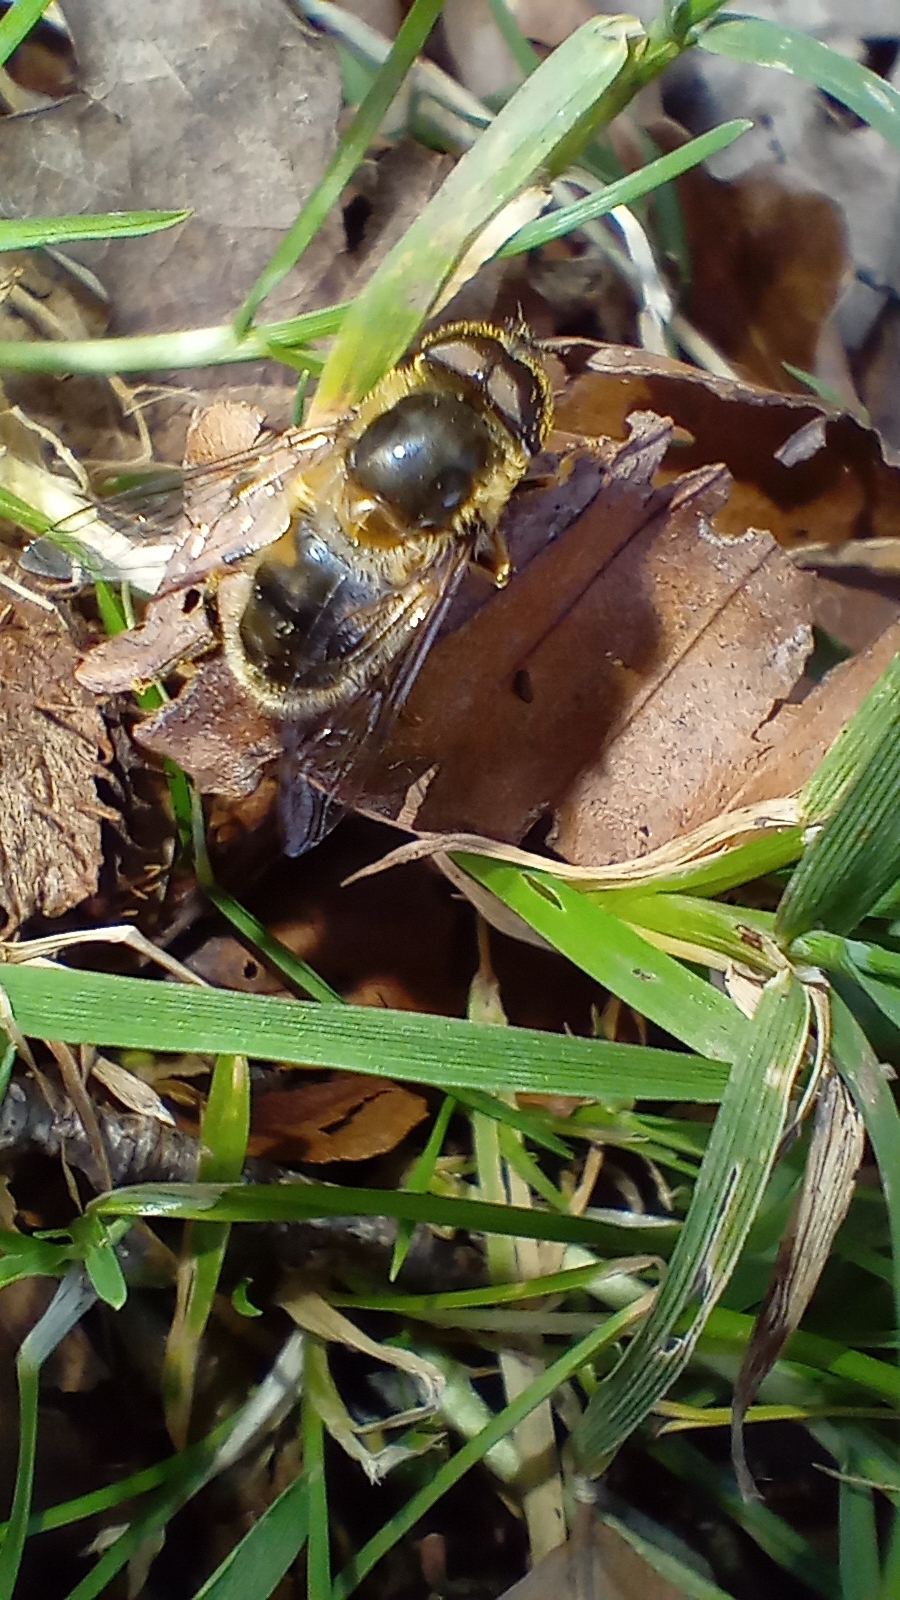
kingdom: Animalia
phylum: Arthropoda
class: Insecta
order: Diptera
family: Syrphidae
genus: Eristalis
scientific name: Eristalis pertinax
